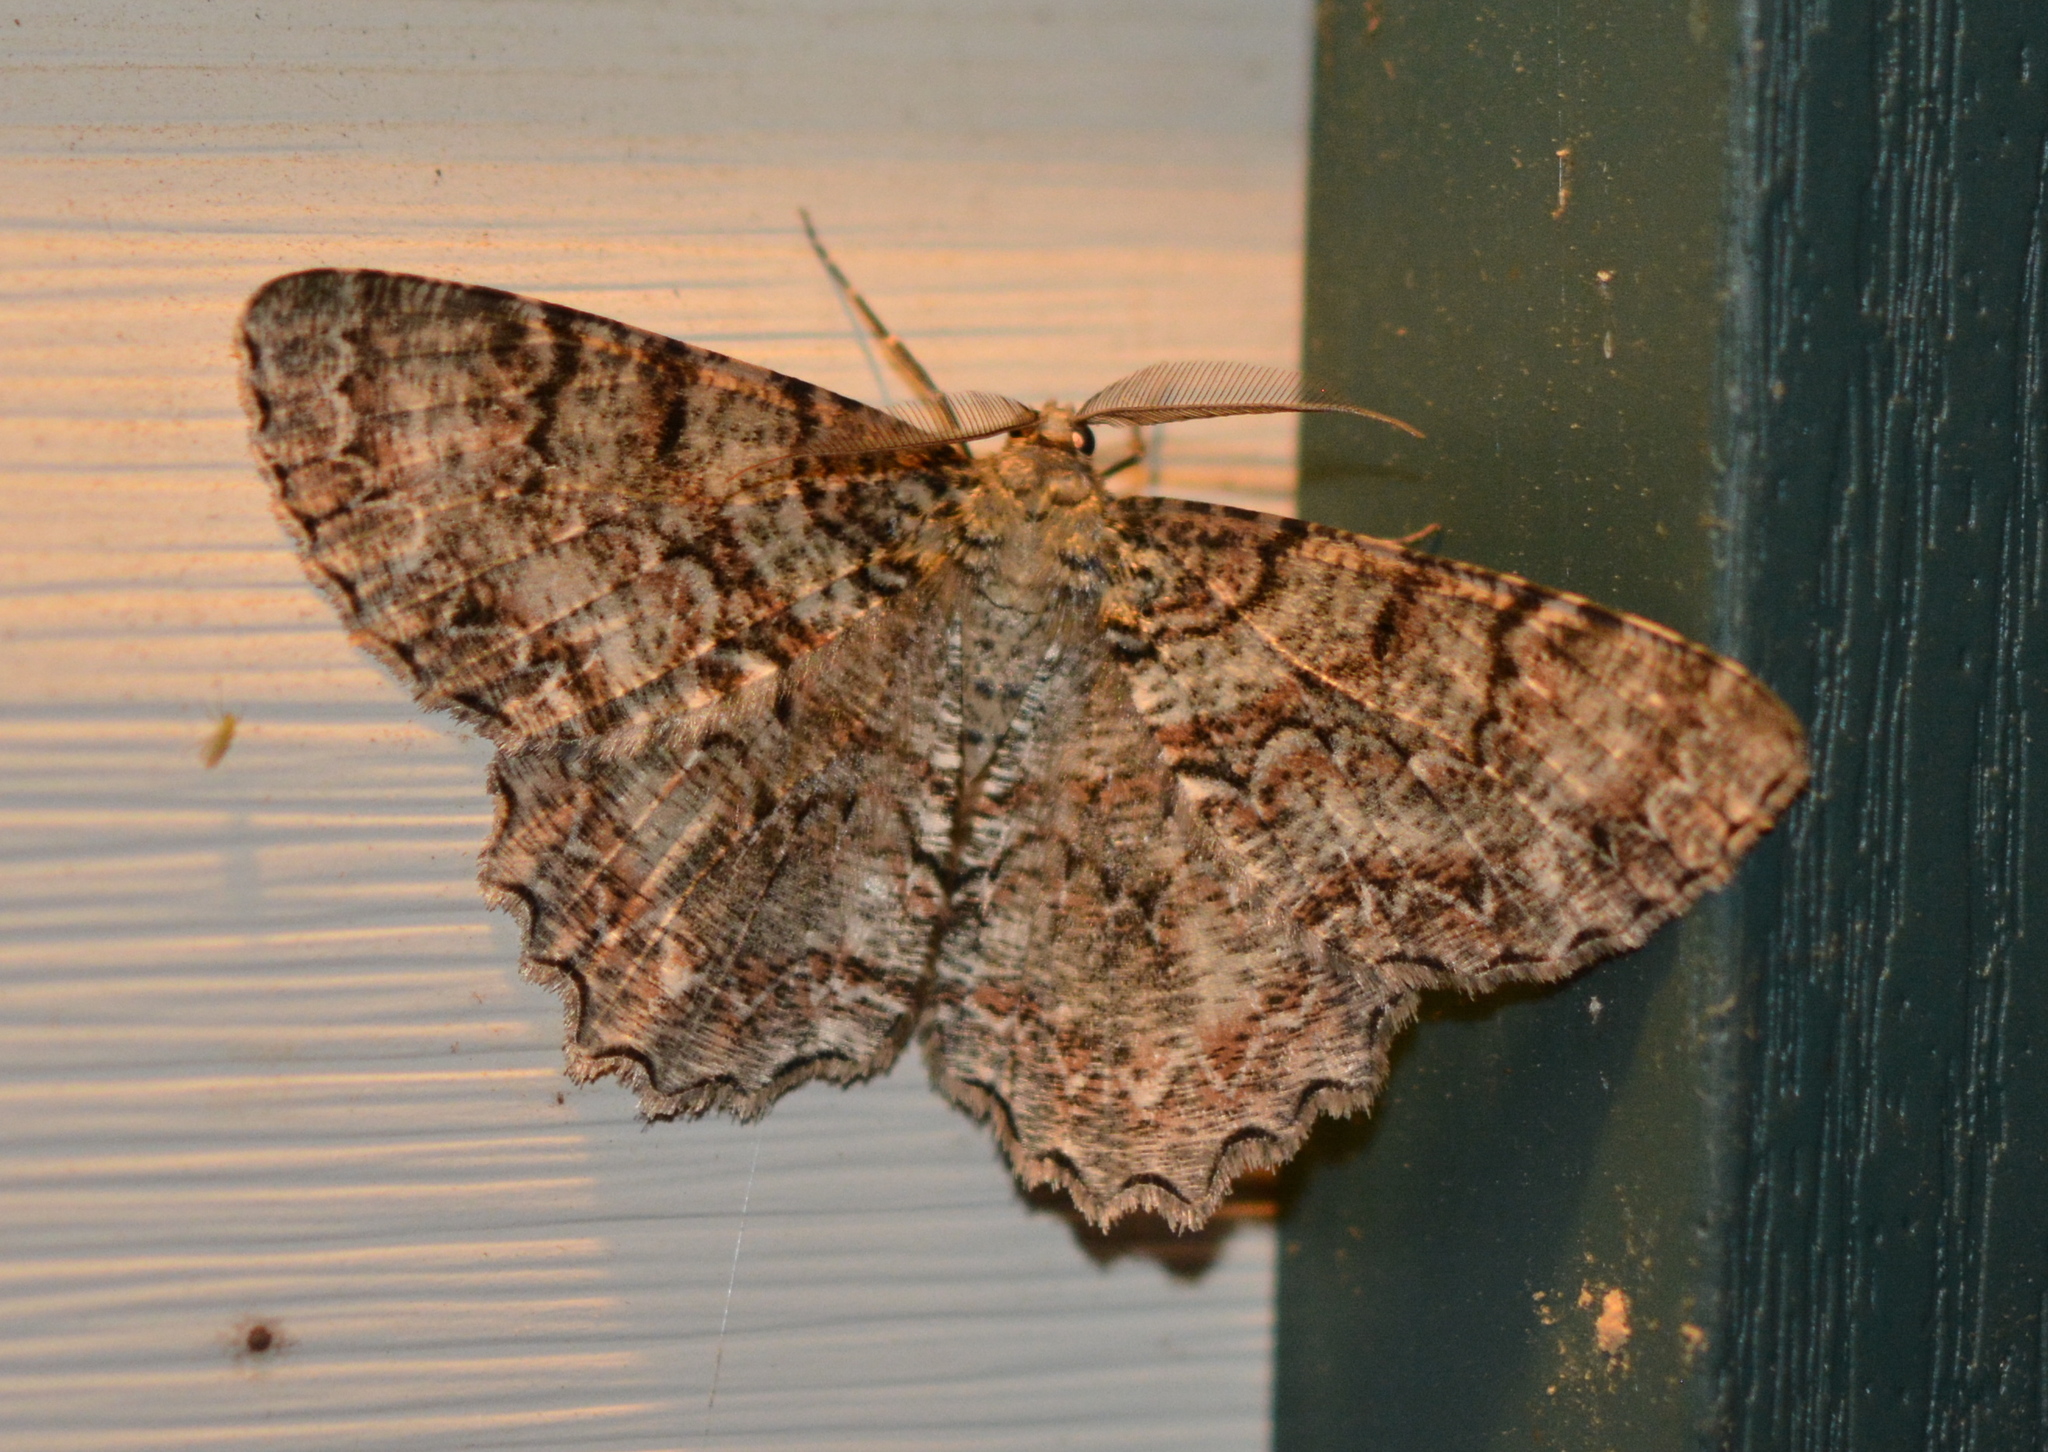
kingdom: Animalia
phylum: Arthropoda
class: Insecta
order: Lepidoptera
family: Geometridae
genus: Epimecis
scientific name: Epimecis hortaria
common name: Tulip-tree beauty
